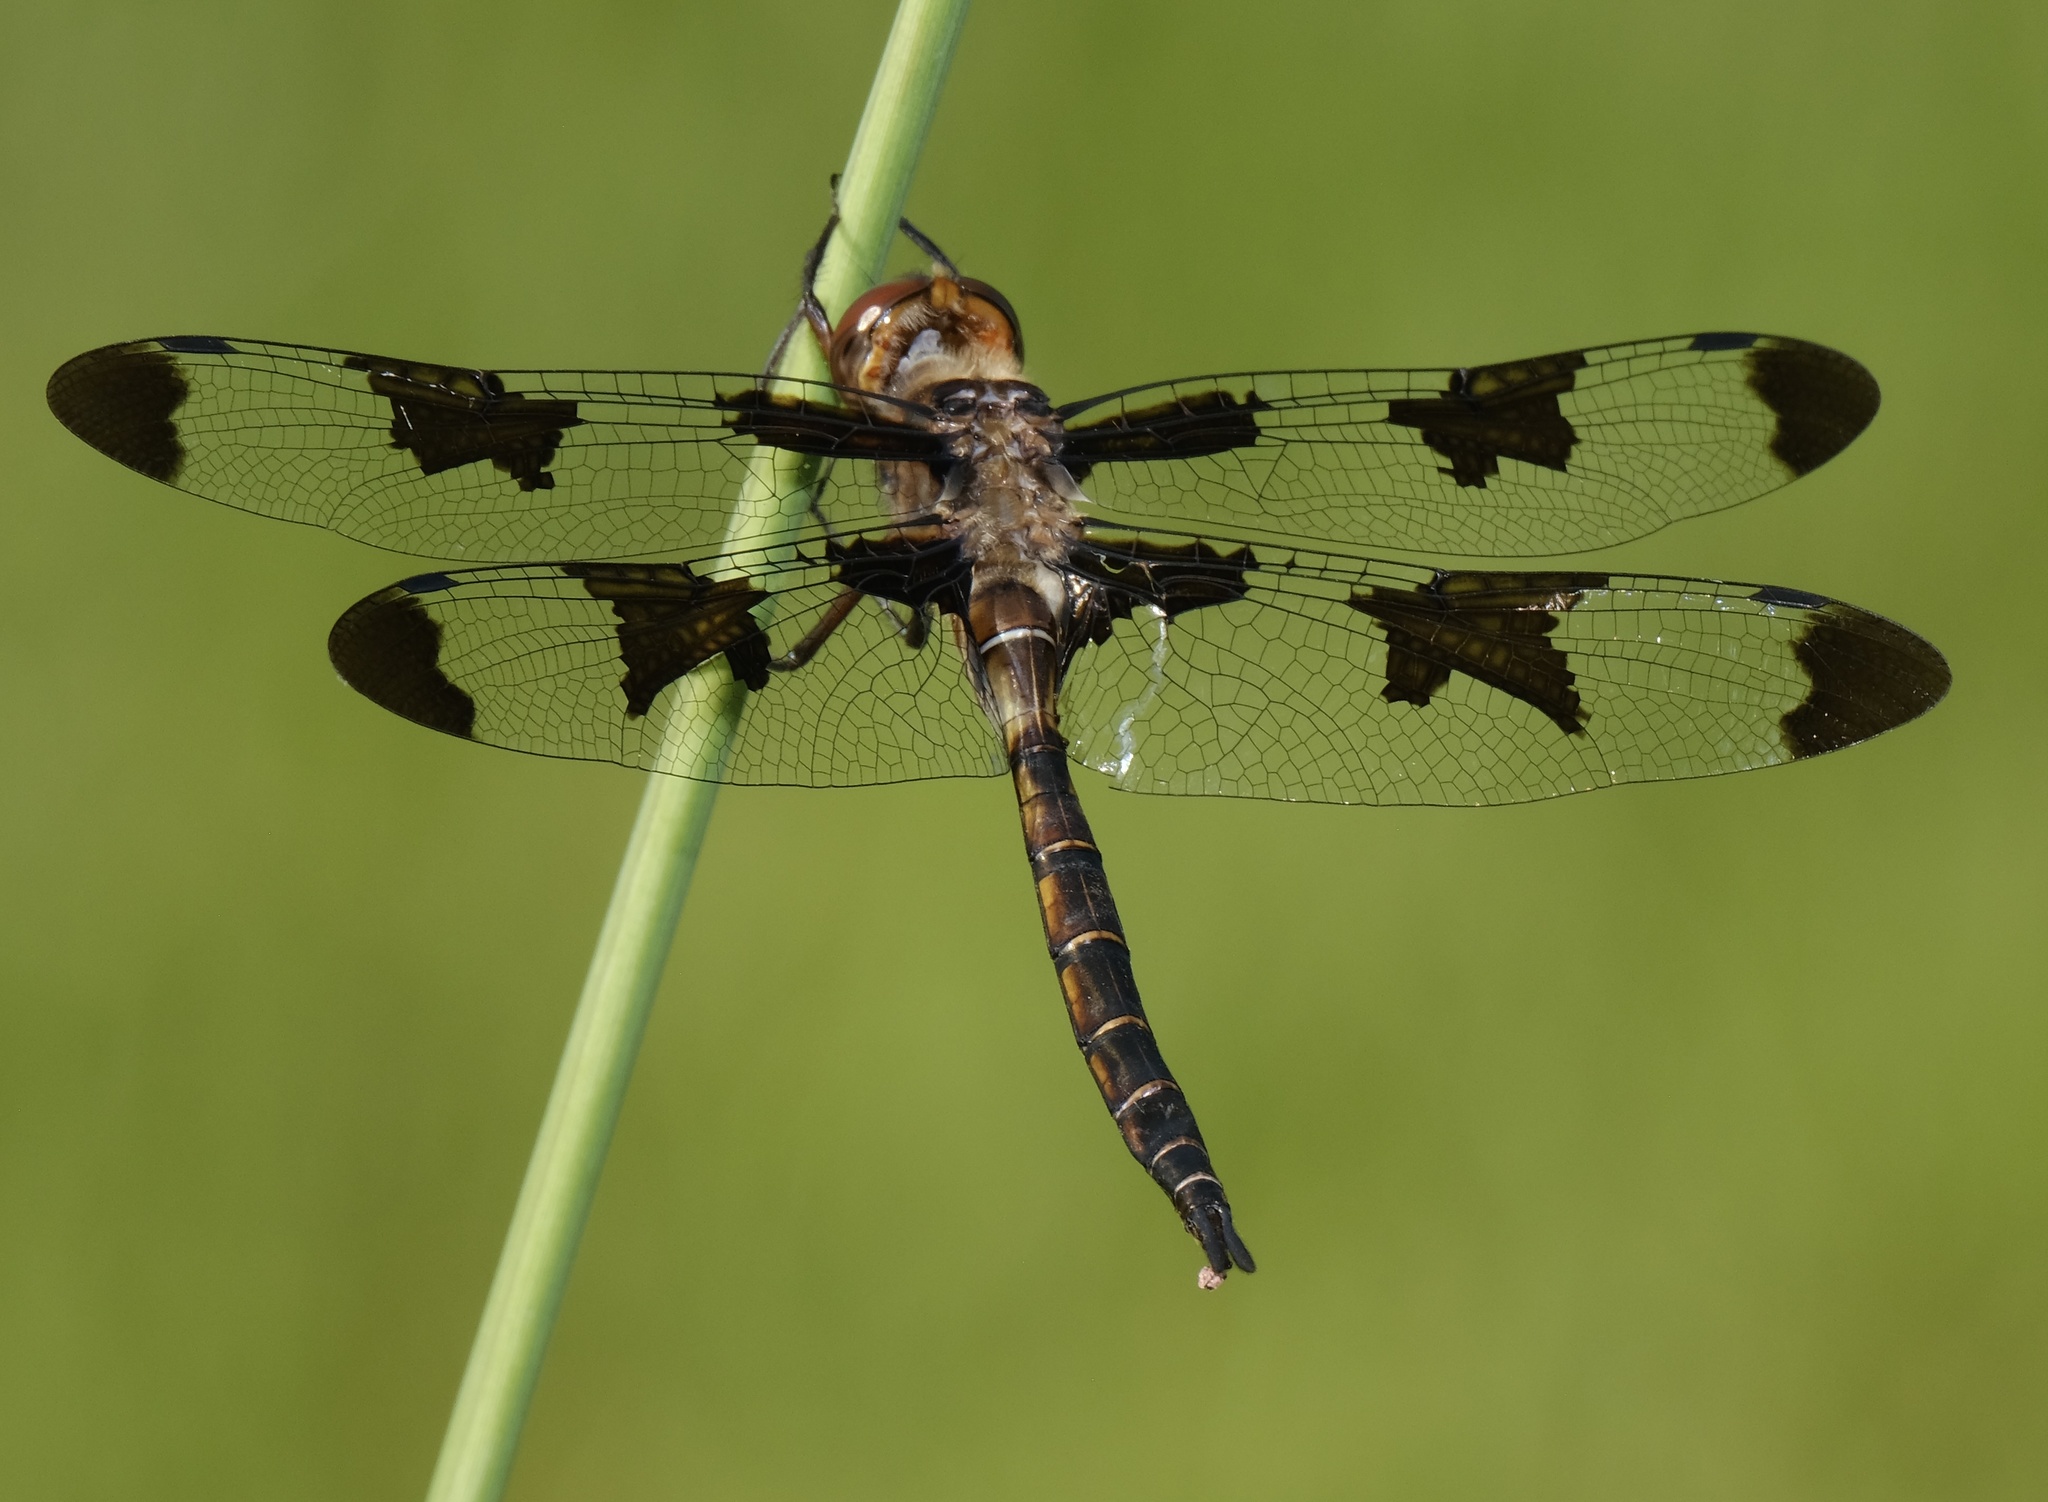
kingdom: Animalia
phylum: Arthropoda
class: Insecta
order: Odonata
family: Corduliidae
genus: Epitheca
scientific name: Epitheca princeps
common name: Prince baskettail
